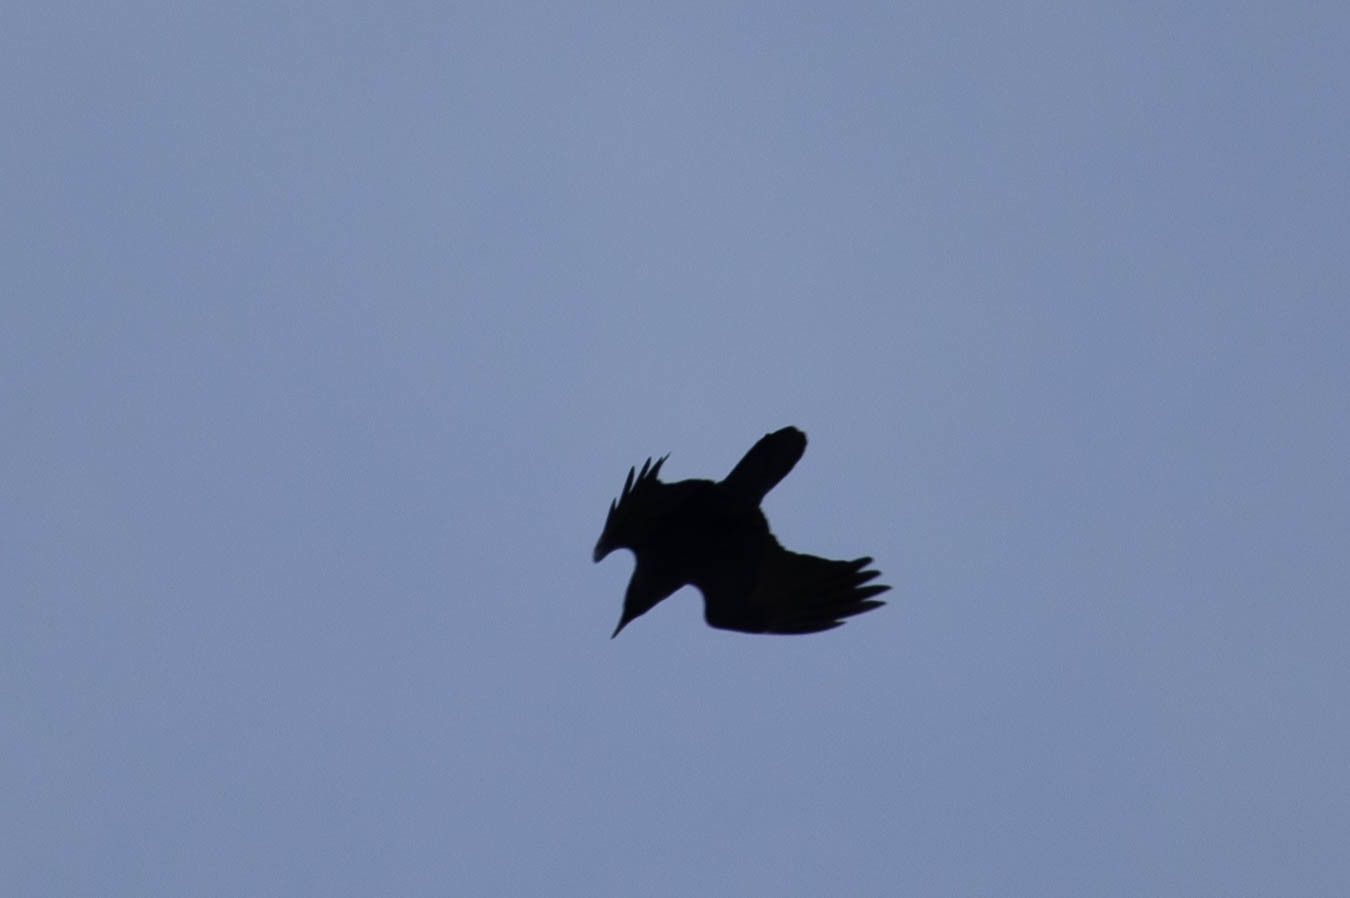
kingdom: Animalia
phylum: Chordata
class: Aves
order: Passeriformes
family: Corvidae
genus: Corvus
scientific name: Corvus corax
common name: Common raven
